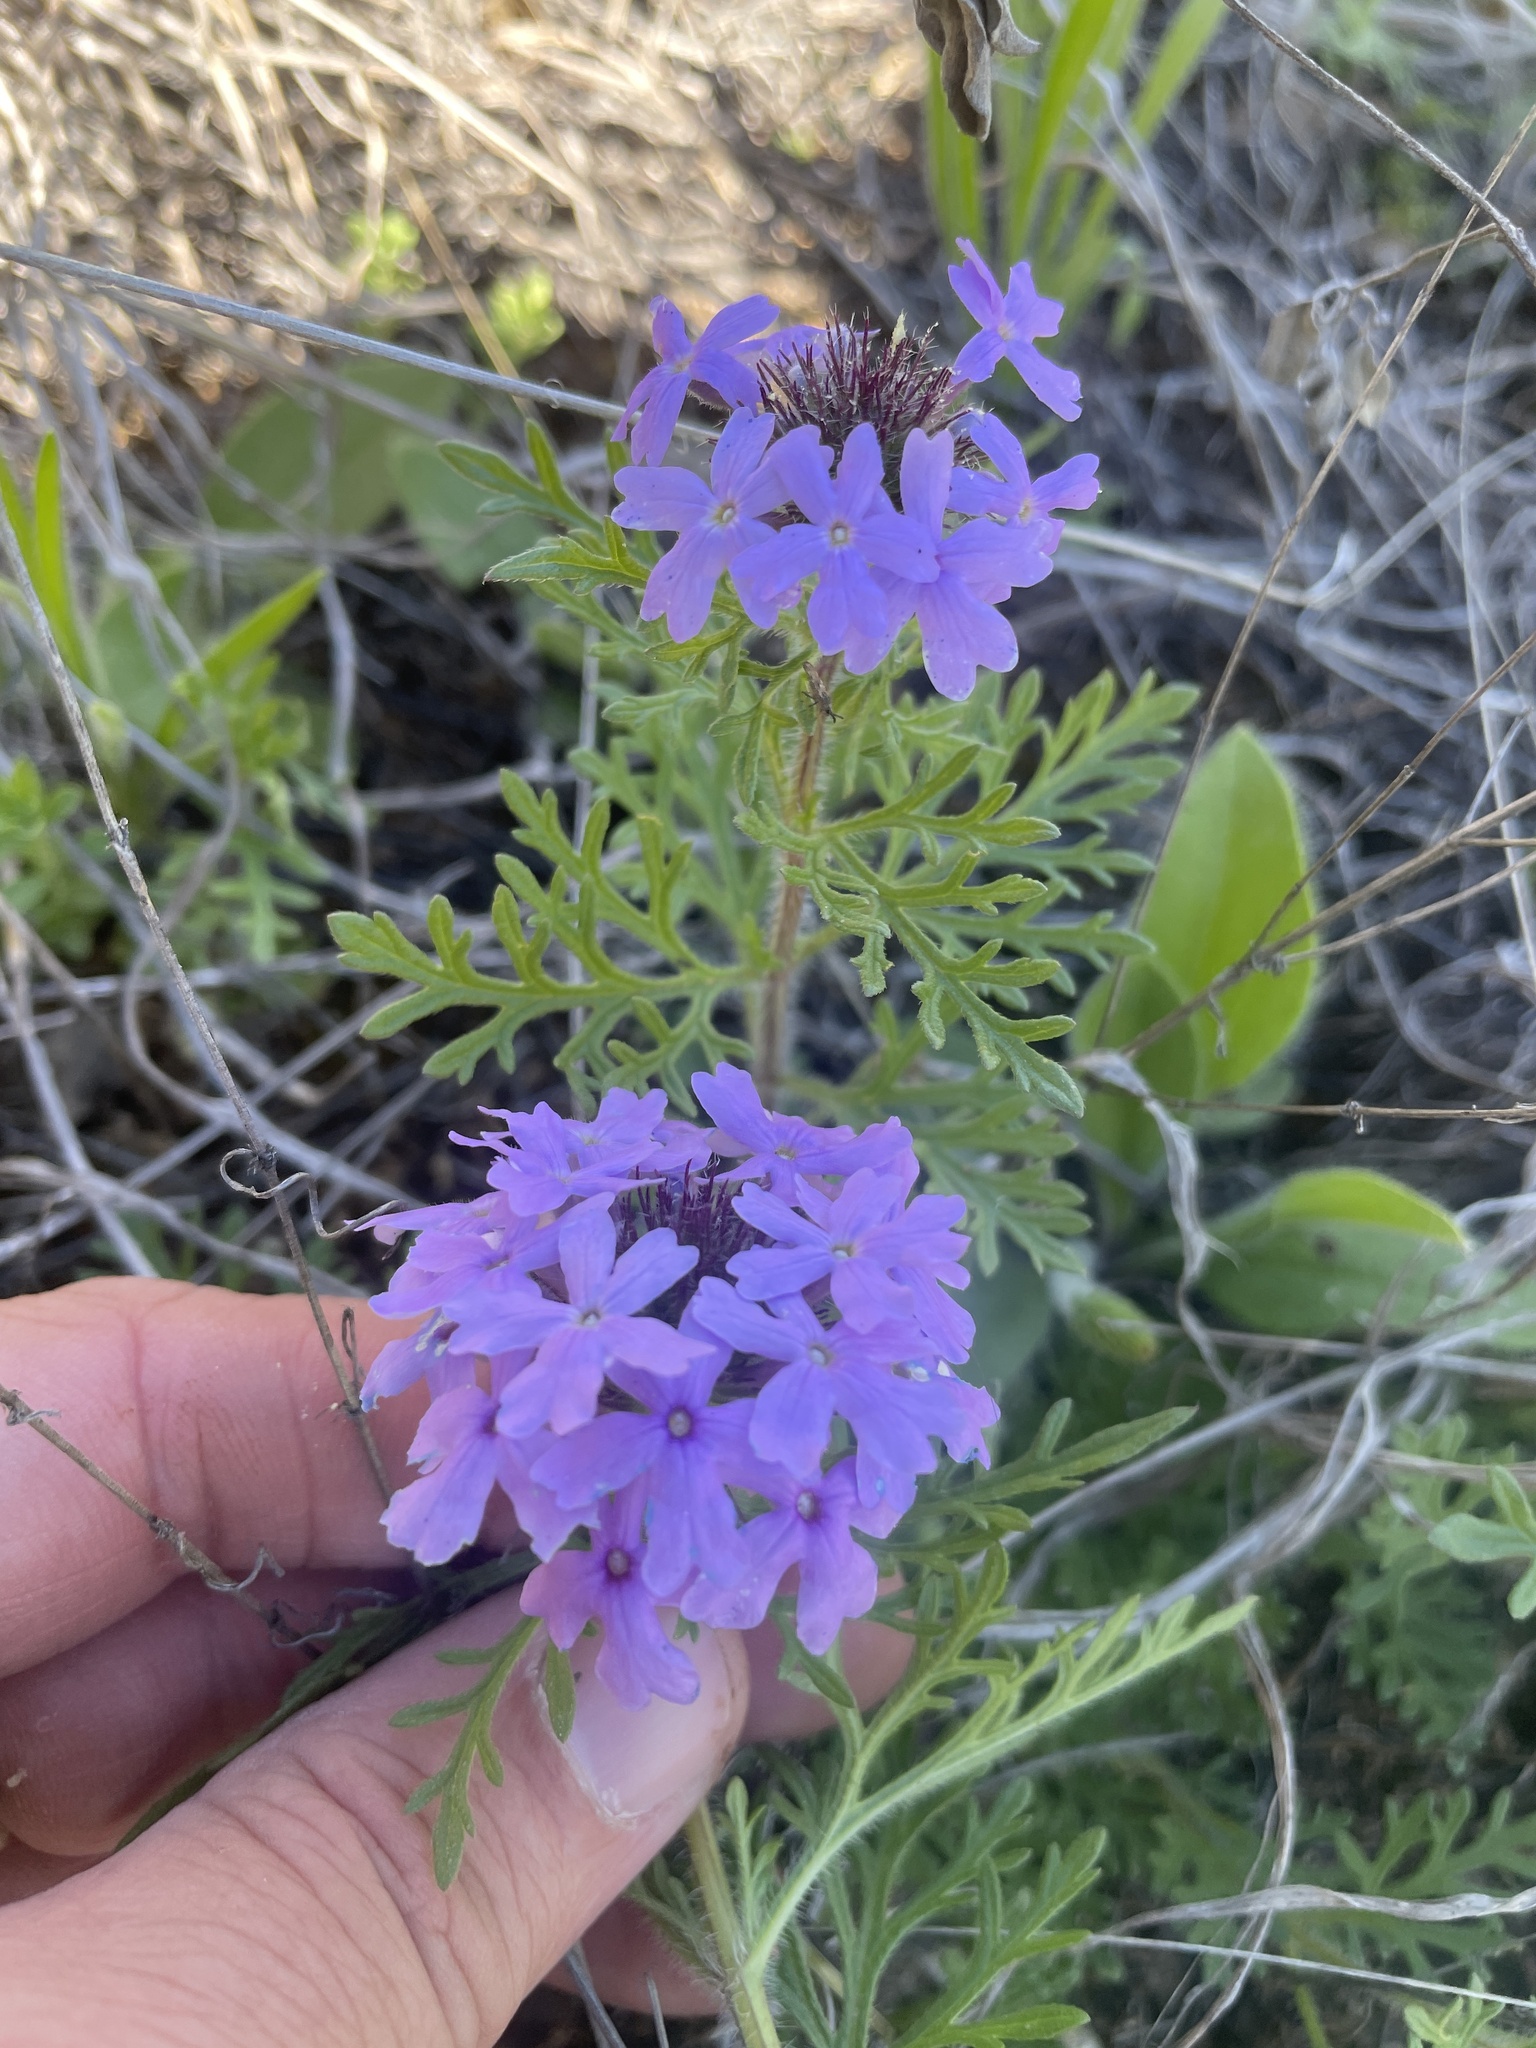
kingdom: Plantae
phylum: Tracheophyta
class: Magnoliopsida
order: Lamiales
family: Verbenaceae
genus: Verbena
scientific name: Verbena bipinnatifida
